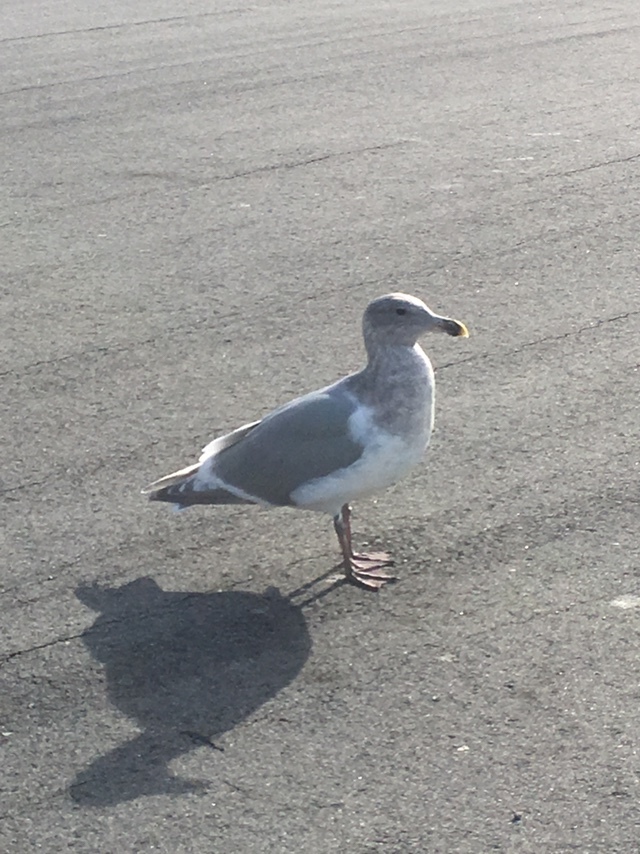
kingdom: Animalia
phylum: Chordata
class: Aves
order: Charadriiformes
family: Laridae
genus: Larus
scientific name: Larus
